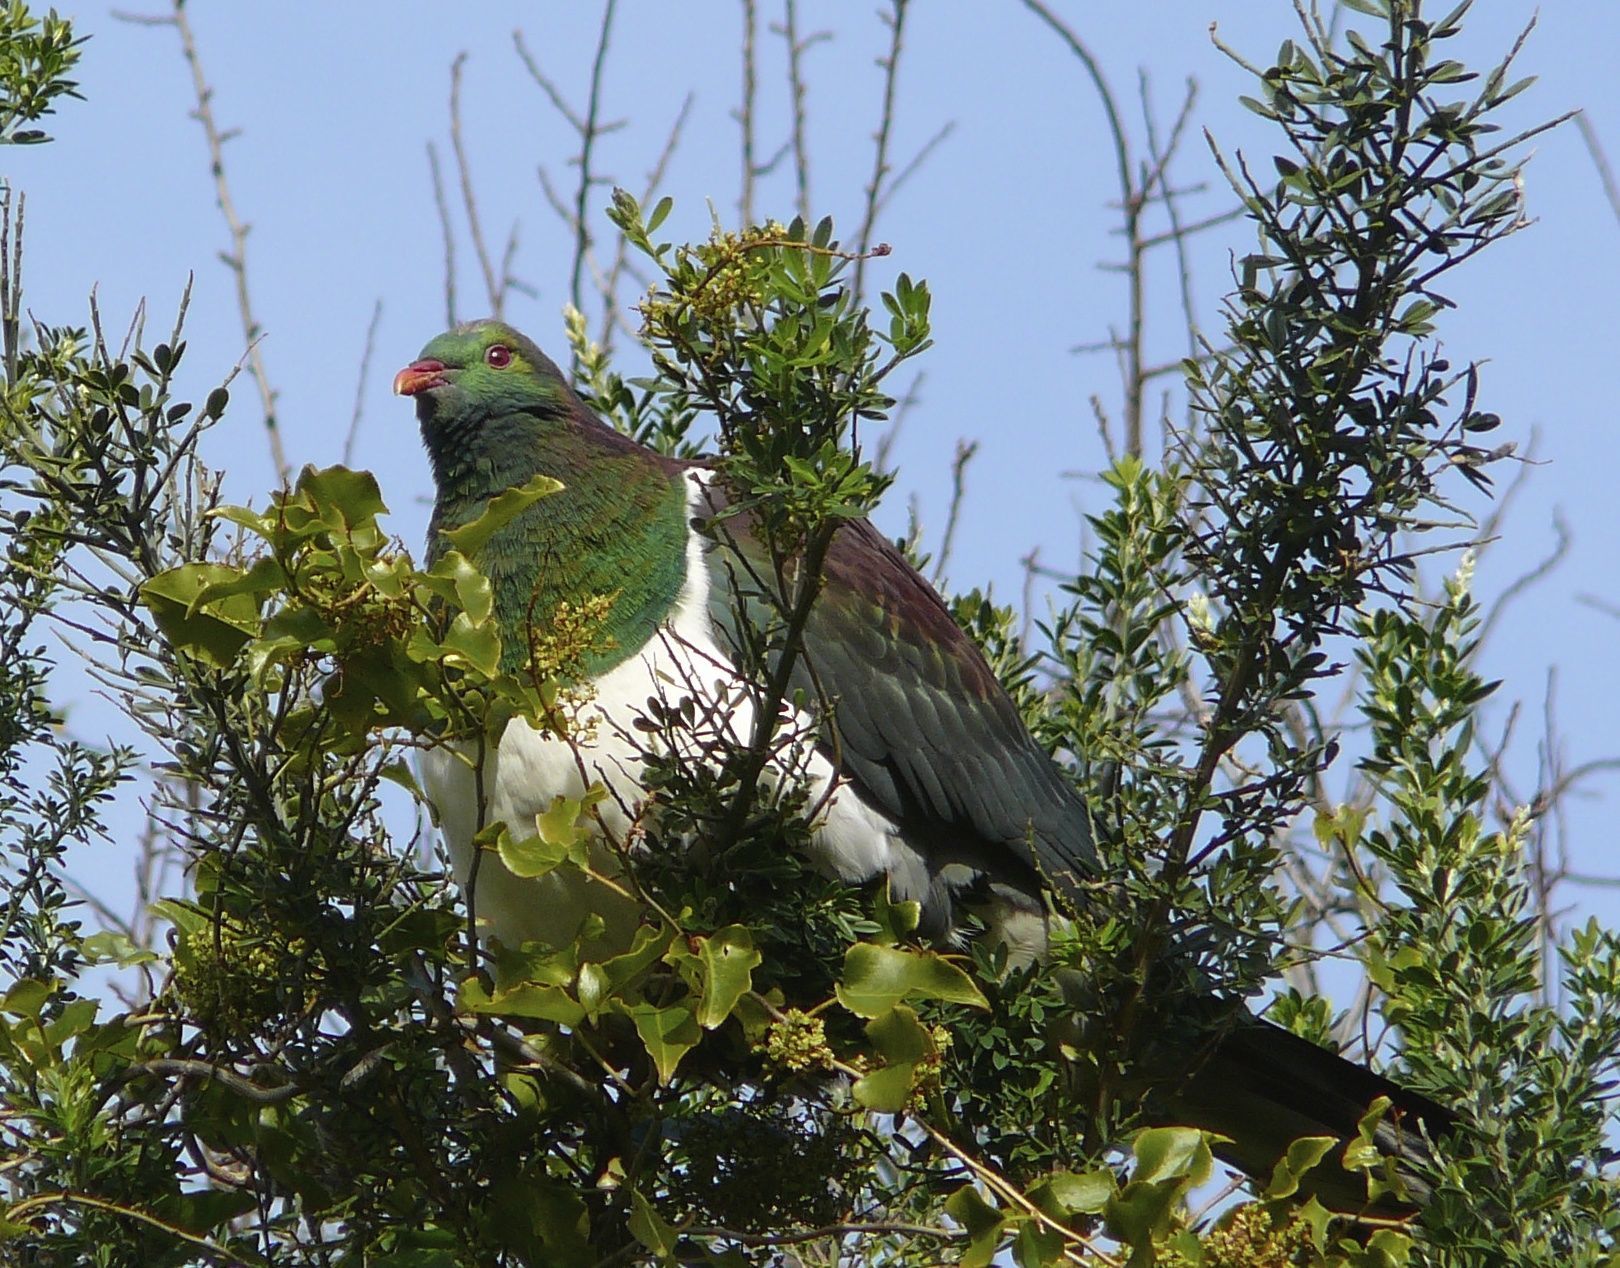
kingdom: Animalia
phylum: Chordata
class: Aves
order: Columbiformes
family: Columbidae
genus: Hemiphaga
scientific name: Hemiphaga novaeseelandiae
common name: New zealand pigeon
